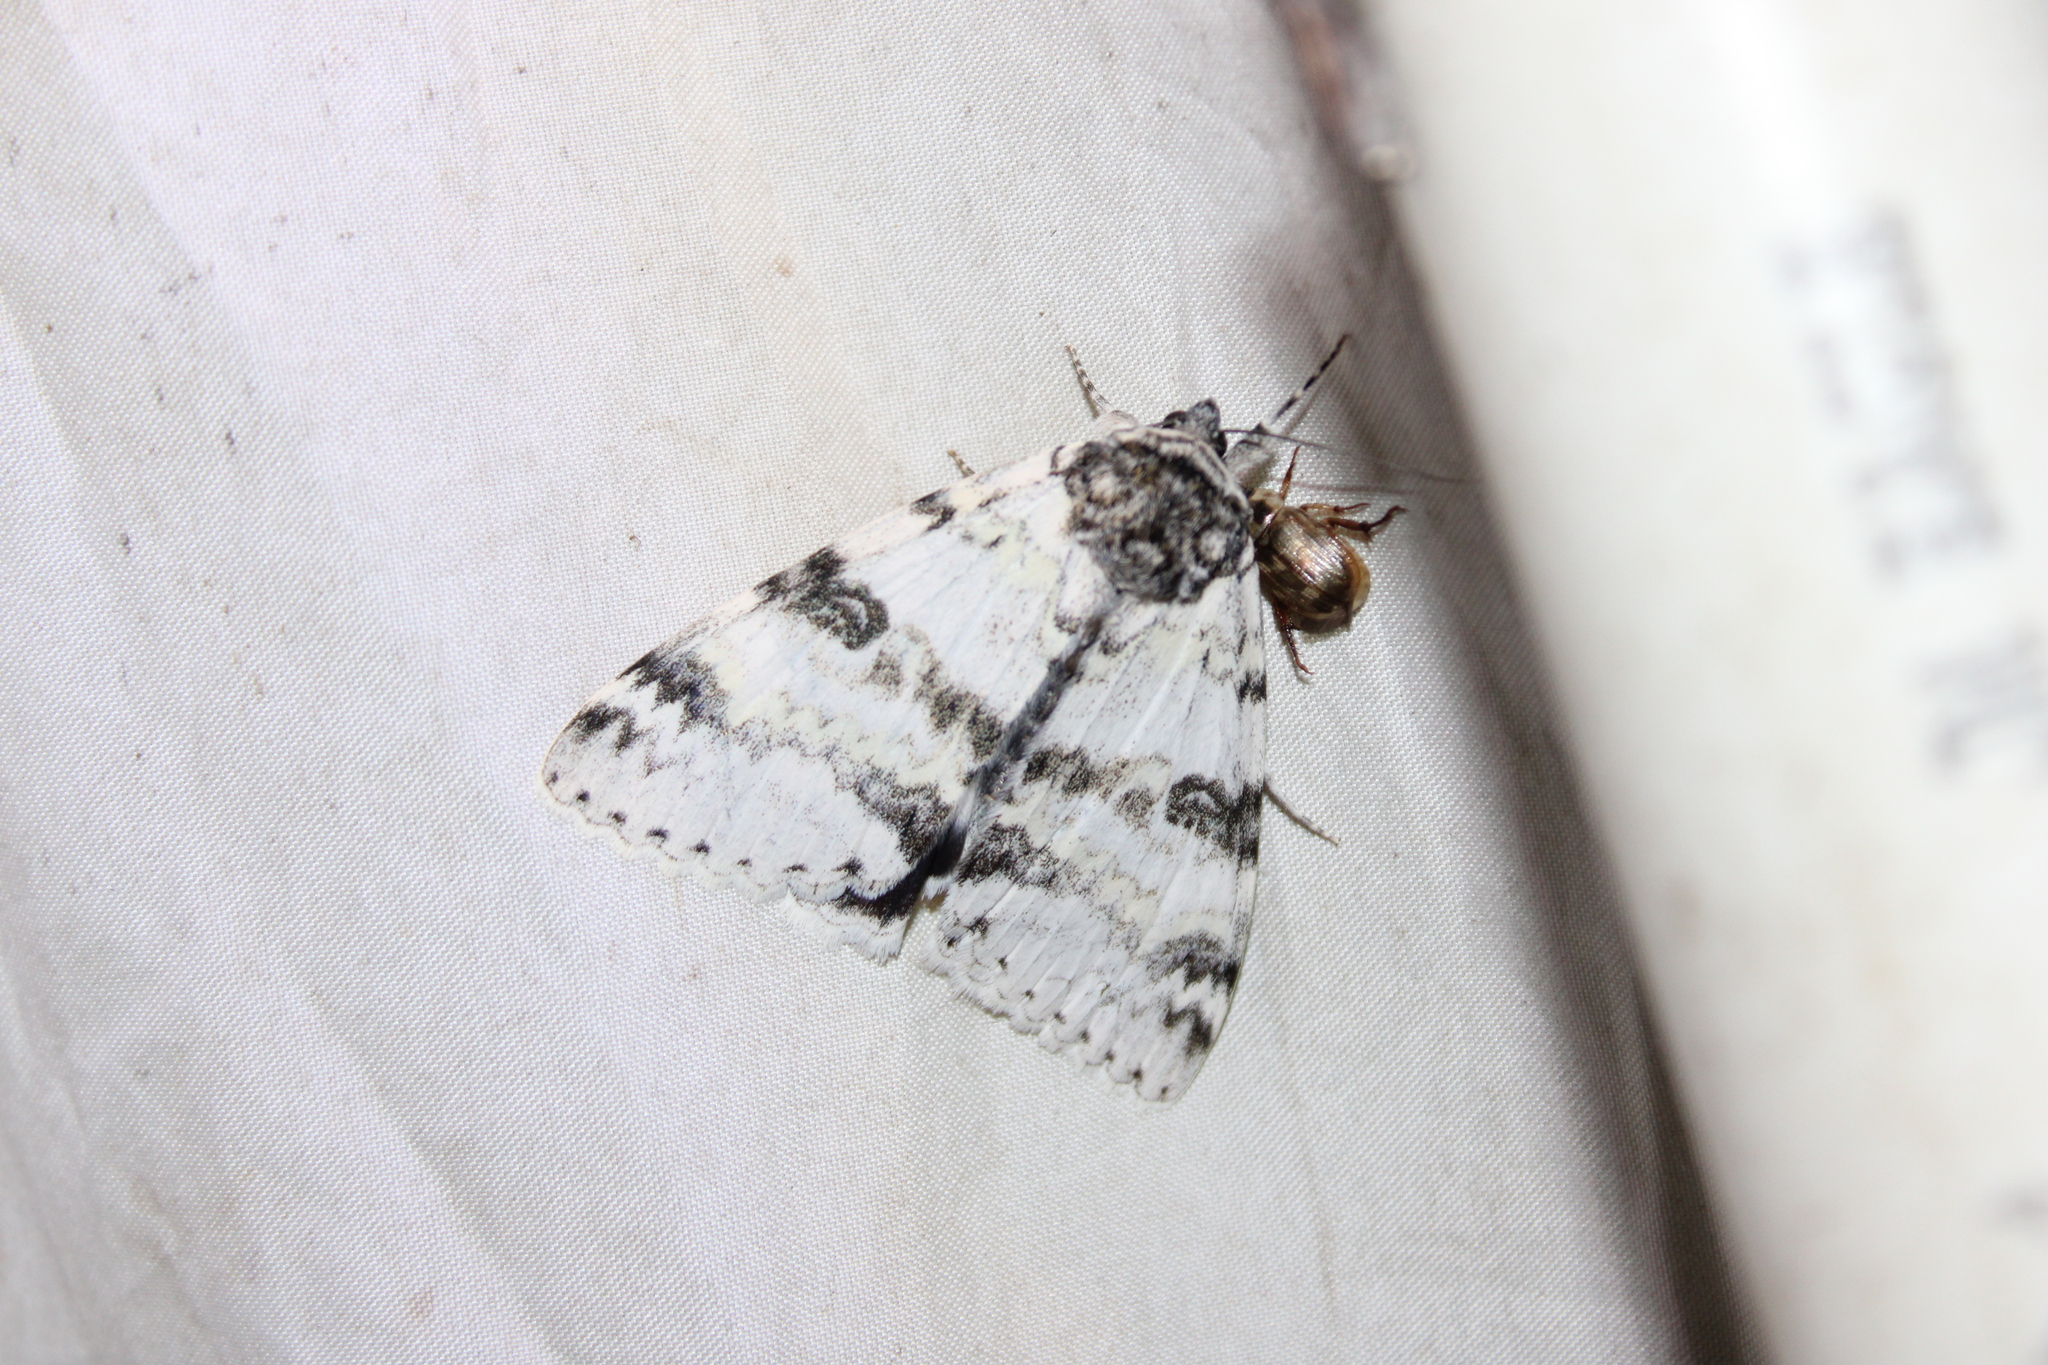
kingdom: Animalia
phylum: Arthropoda
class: Insecta
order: Lepidoptera
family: Erebidae
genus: Catocala
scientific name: Catocala relicta
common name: White underwing
